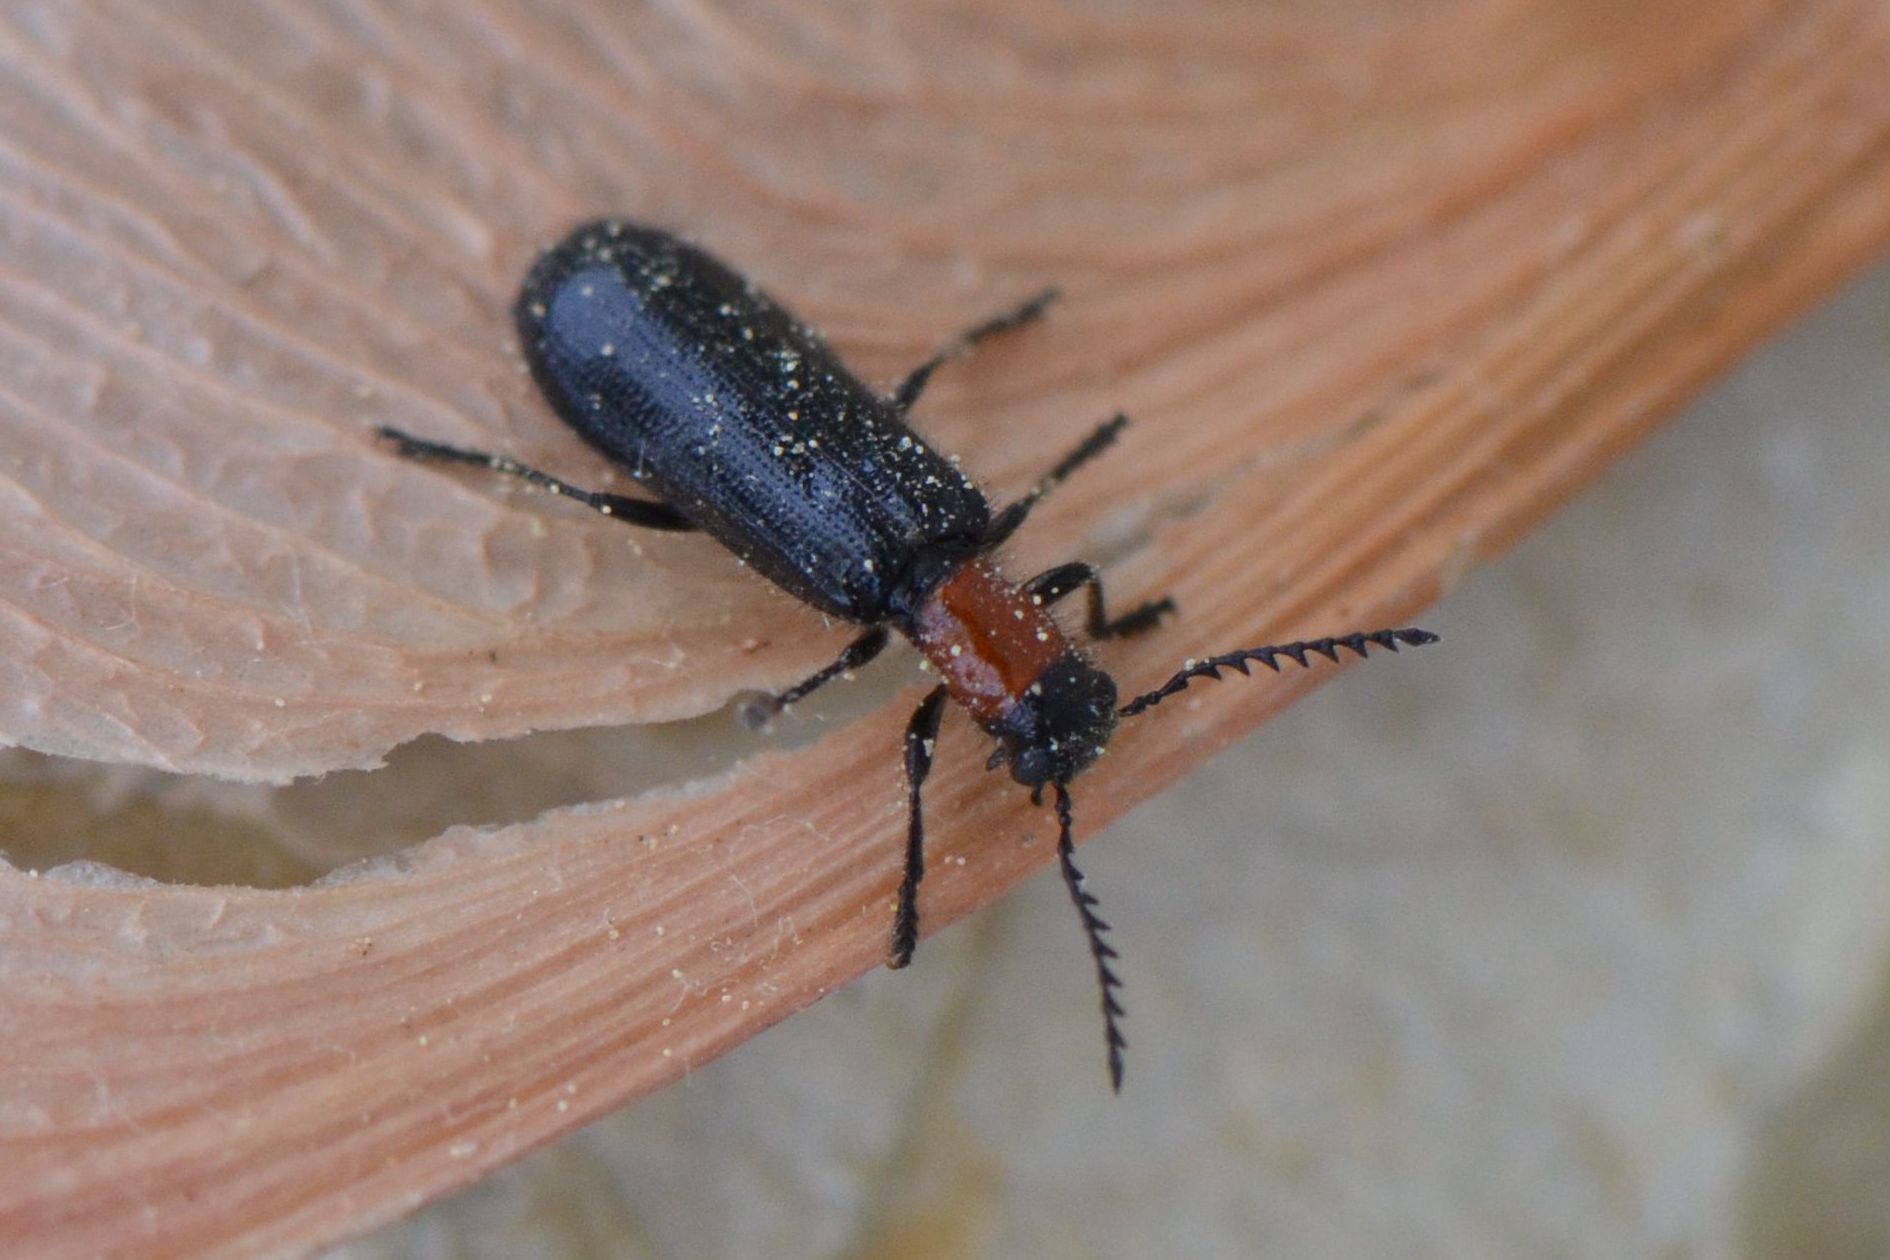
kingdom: Animalia
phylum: Arthropoda
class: Insecta
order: Coleoptera
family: Cleridae
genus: Tillus
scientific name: Tillus elongatus
